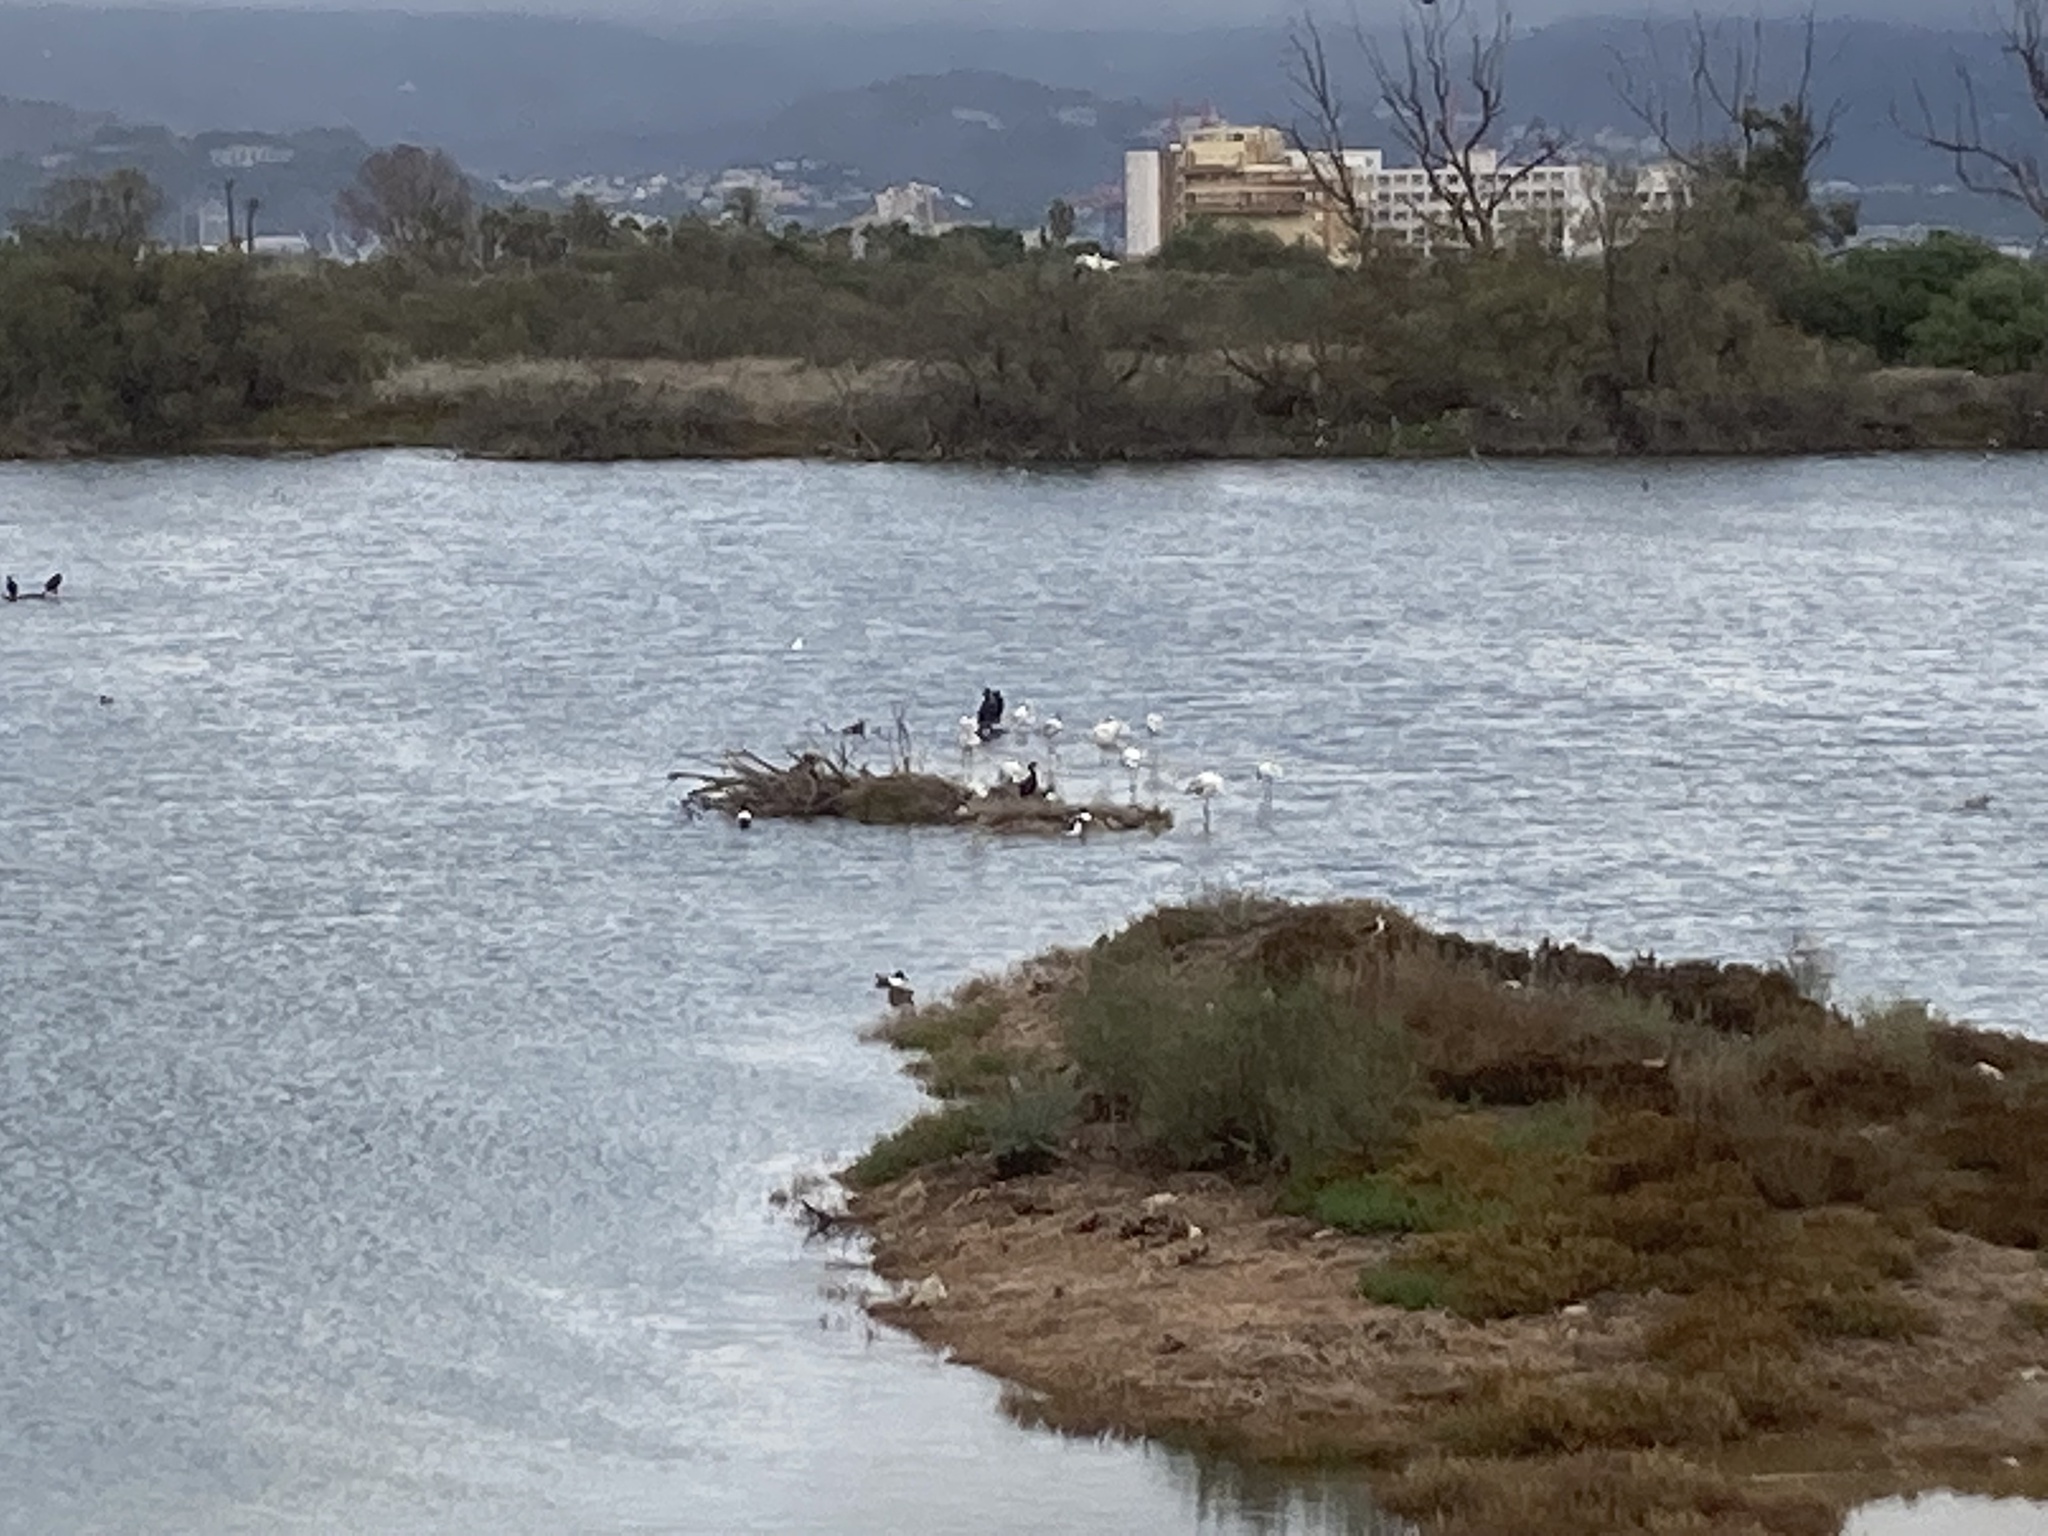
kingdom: Animalia
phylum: Chordata
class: Aves
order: Anseriformes
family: Anatidae
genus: Spatula
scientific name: Spatula clypeata
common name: Northern shoveler
